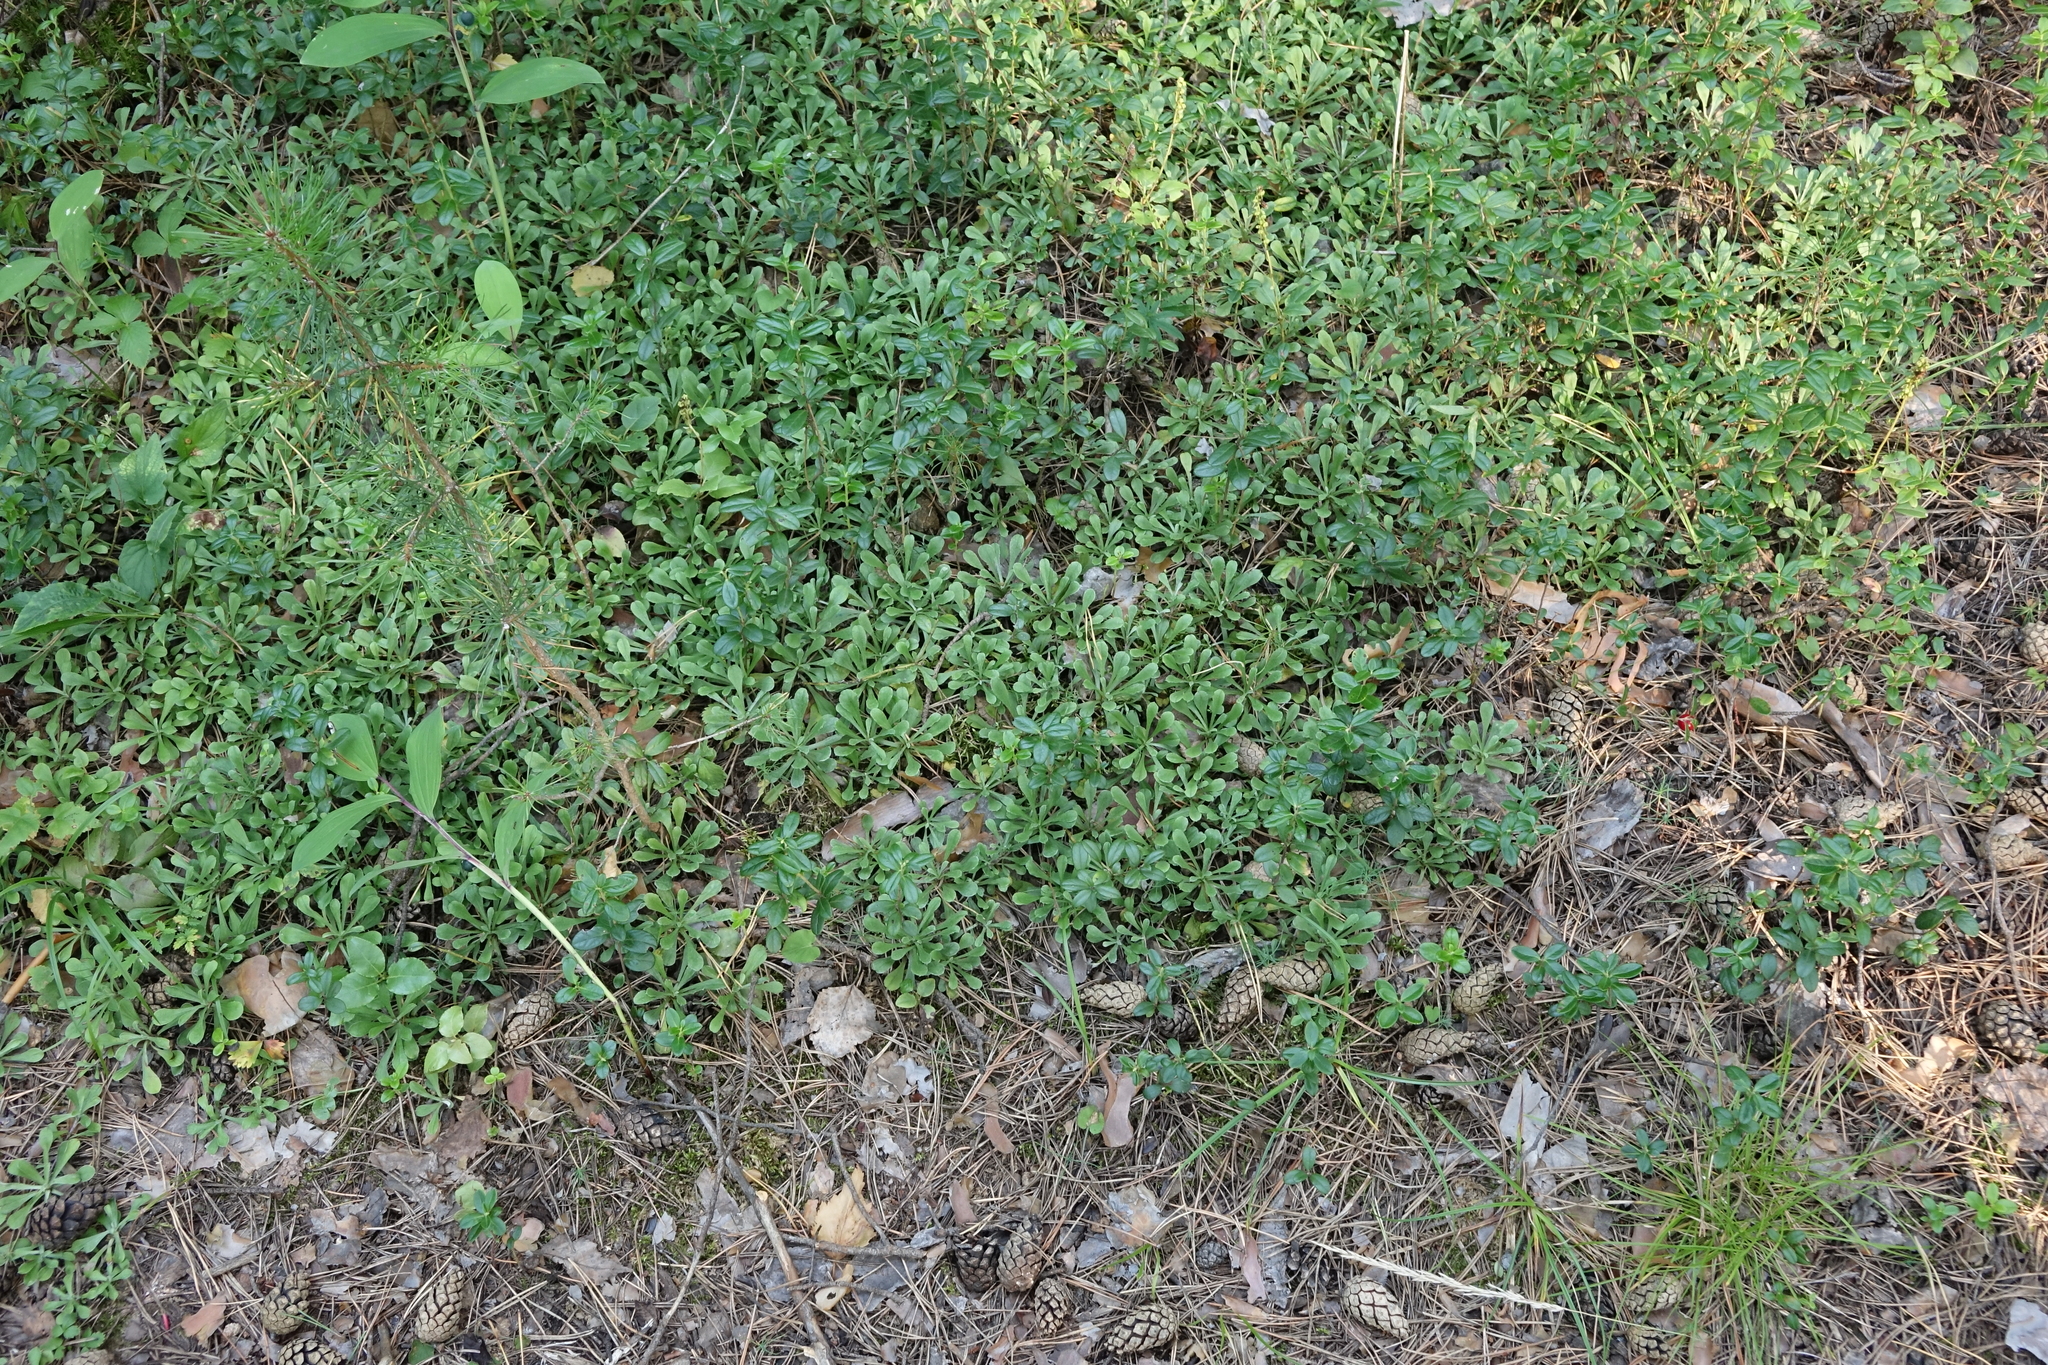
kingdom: Plantae
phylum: Tracheophyta
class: Magnoliopsida
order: Asterales
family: Asteraceae
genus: Antennaria
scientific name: Antennaria dioica
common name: Mountain everlasting
